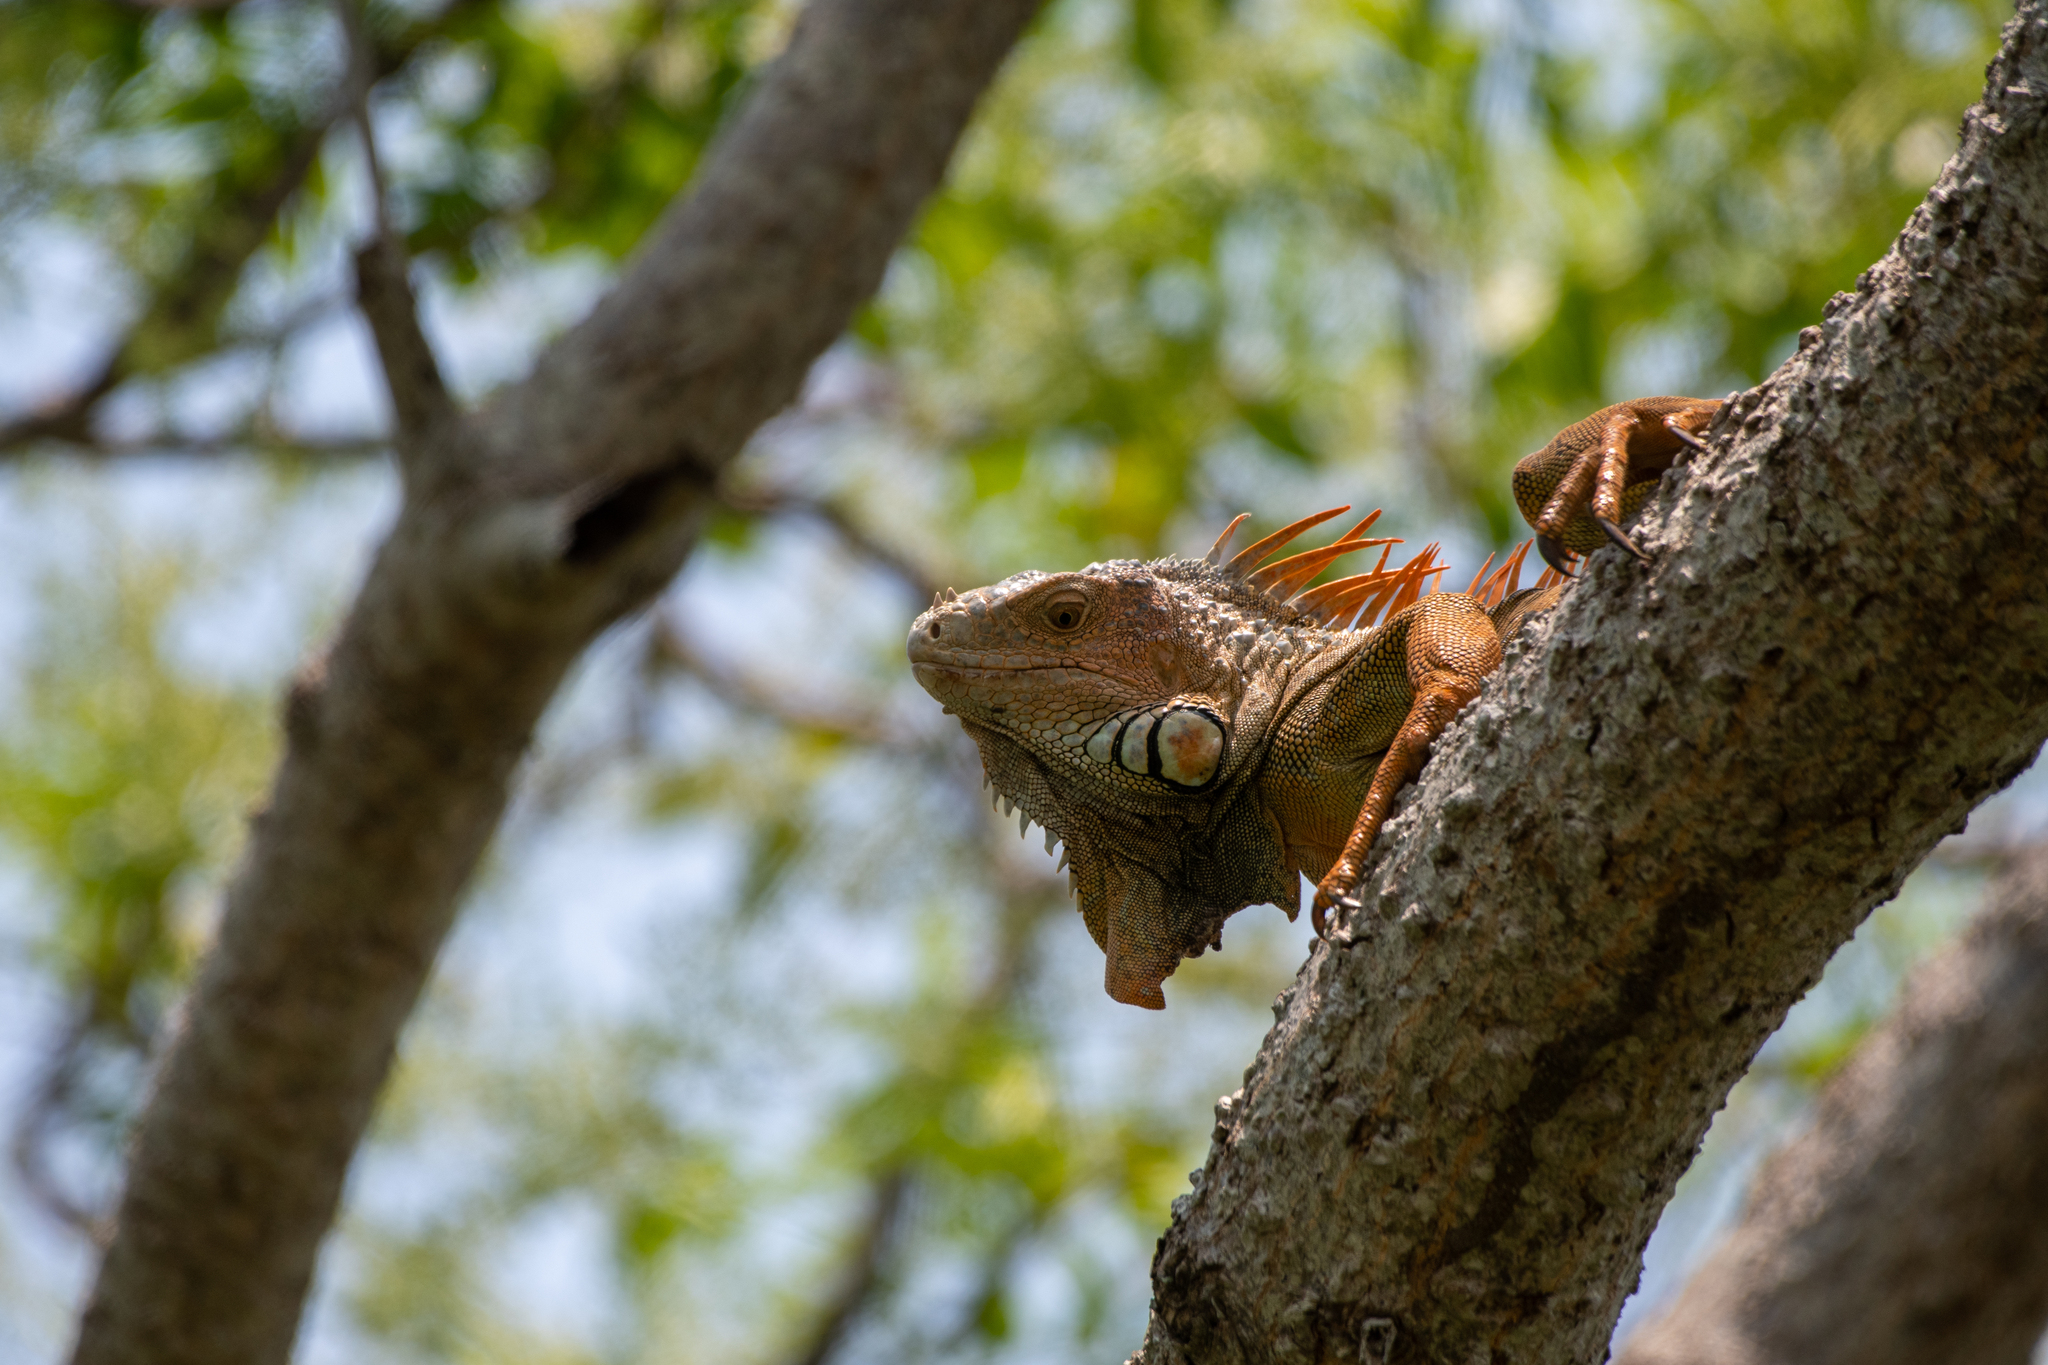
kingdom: Animalia
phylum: Chordata
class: Squamata
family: Iguanidae
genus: Iguana
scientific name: Iguana iguana
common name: Green iguana
